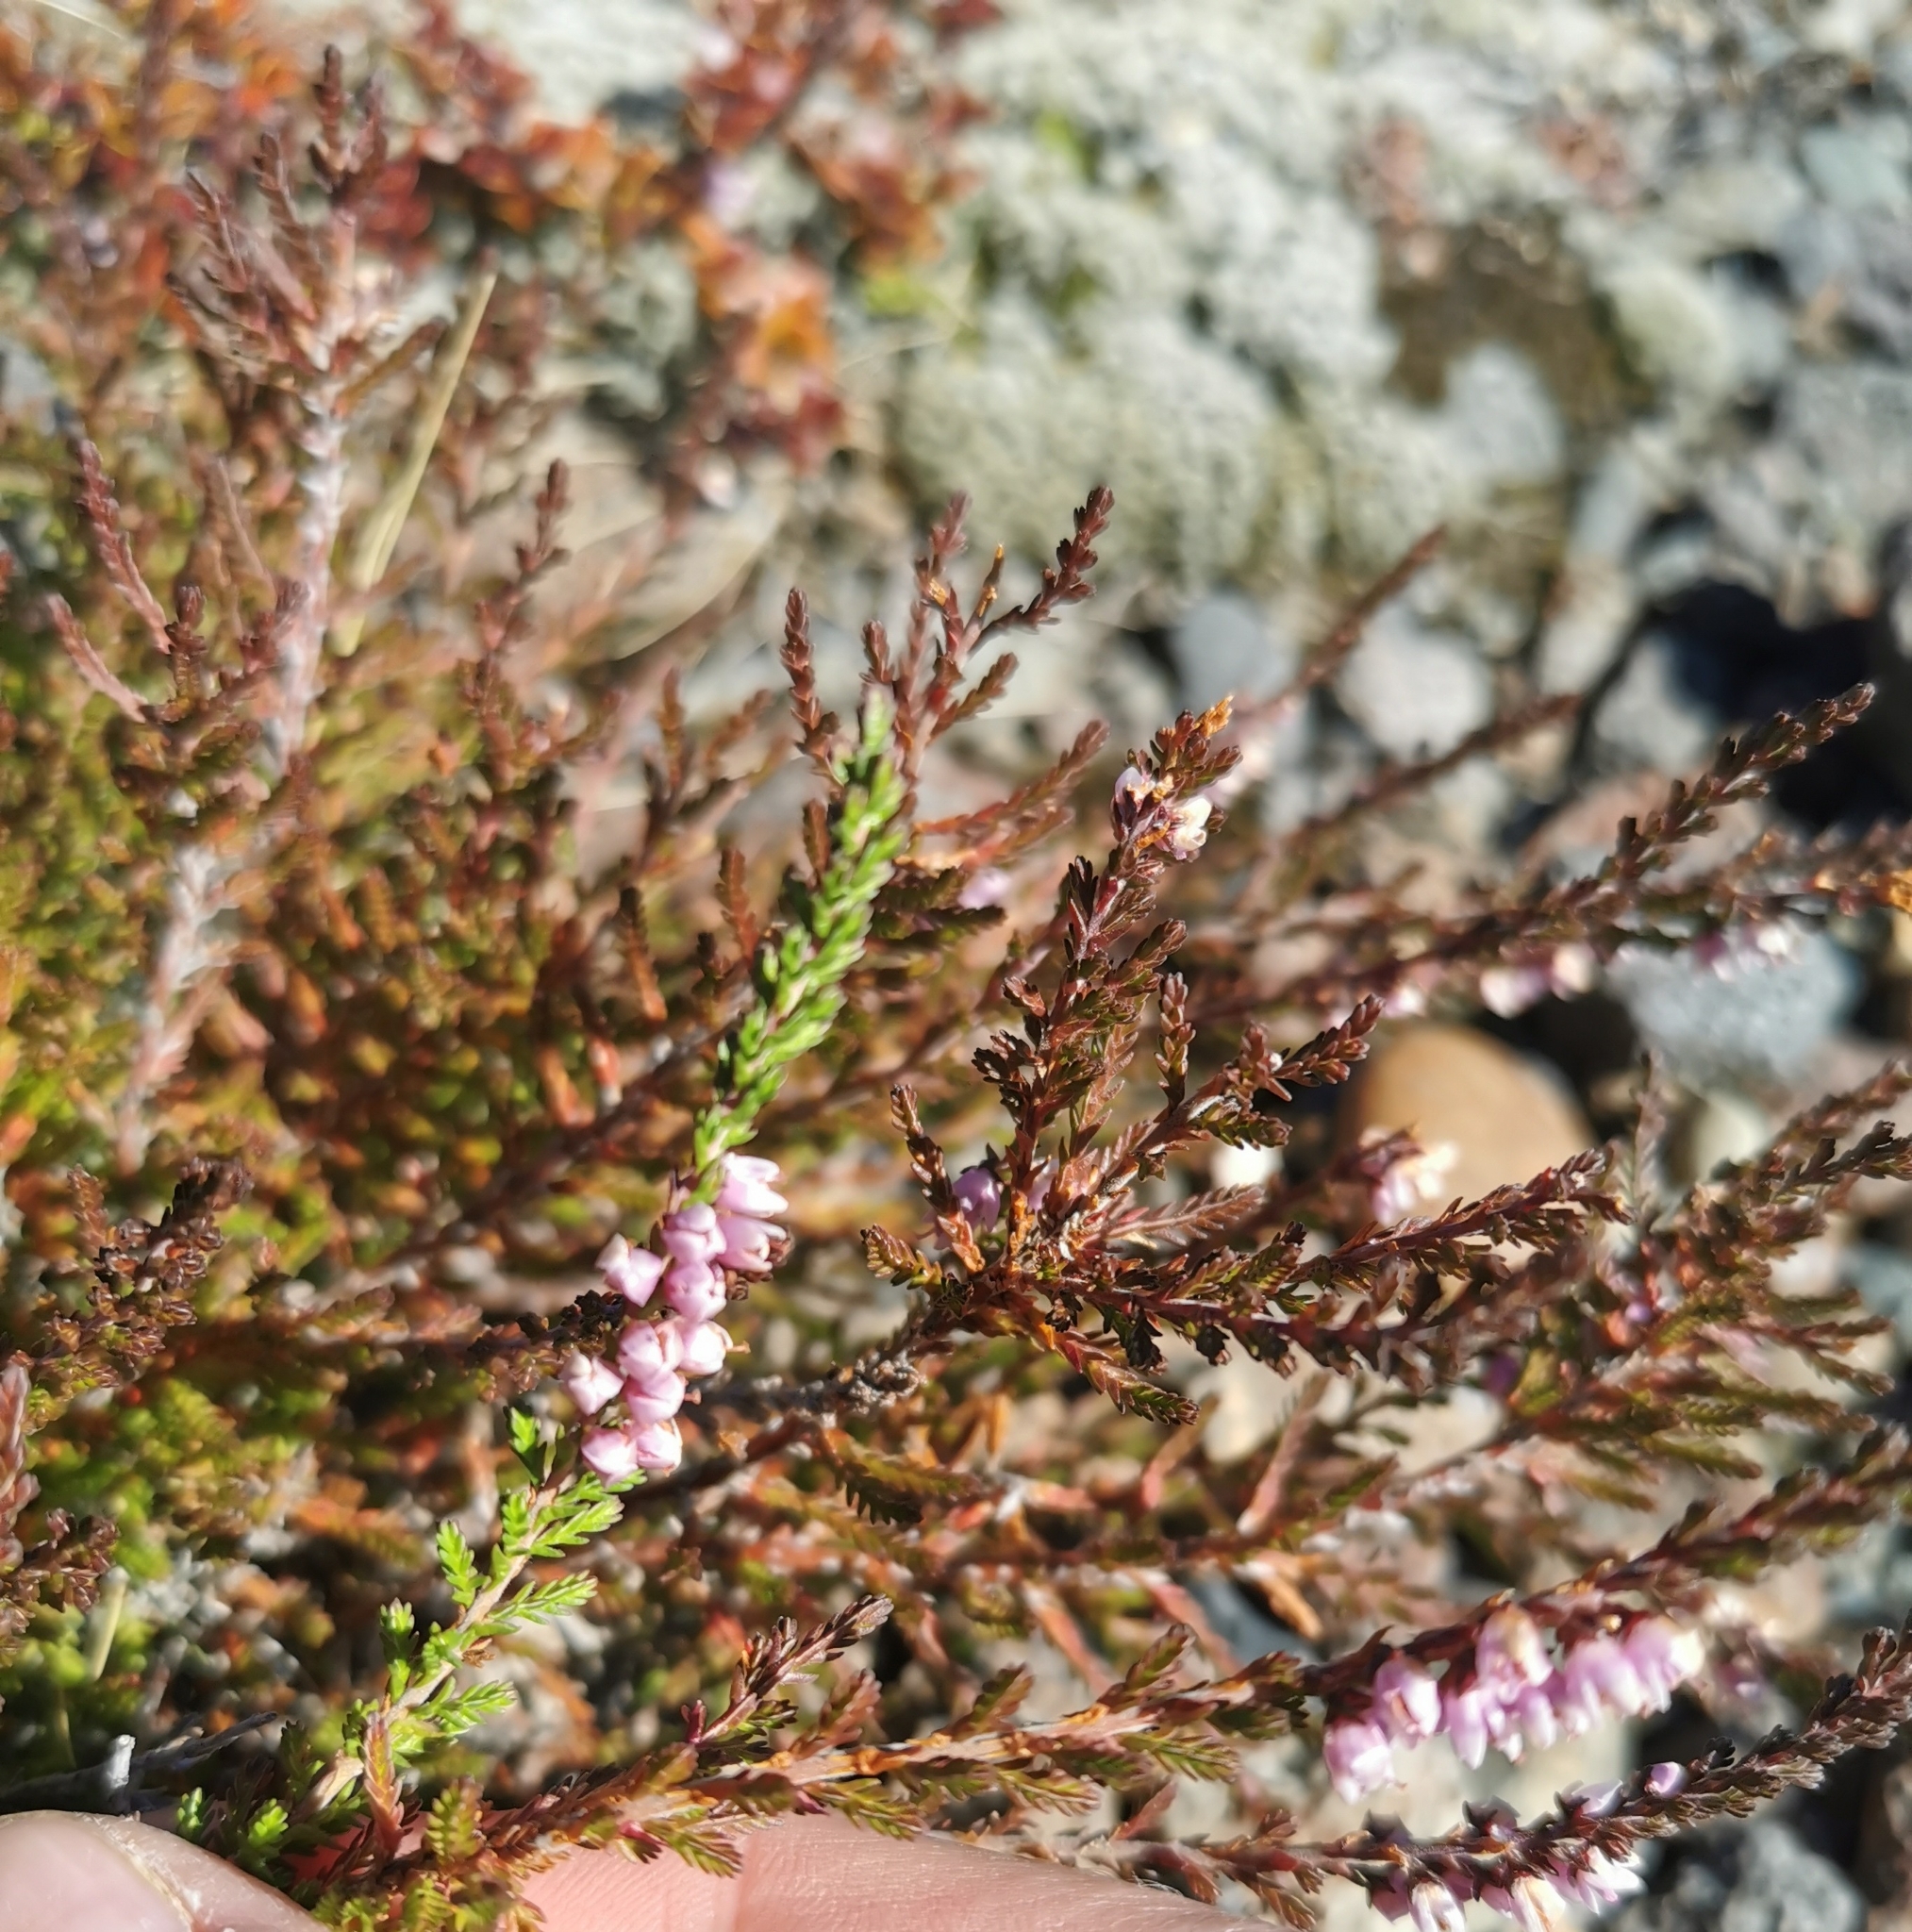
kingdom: Plantae
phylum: Tracheophyta
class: Magnoliopsida
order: Ericales
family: Ericaceae
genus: Calluna
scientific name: Calluna vulgaris
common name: Heather
